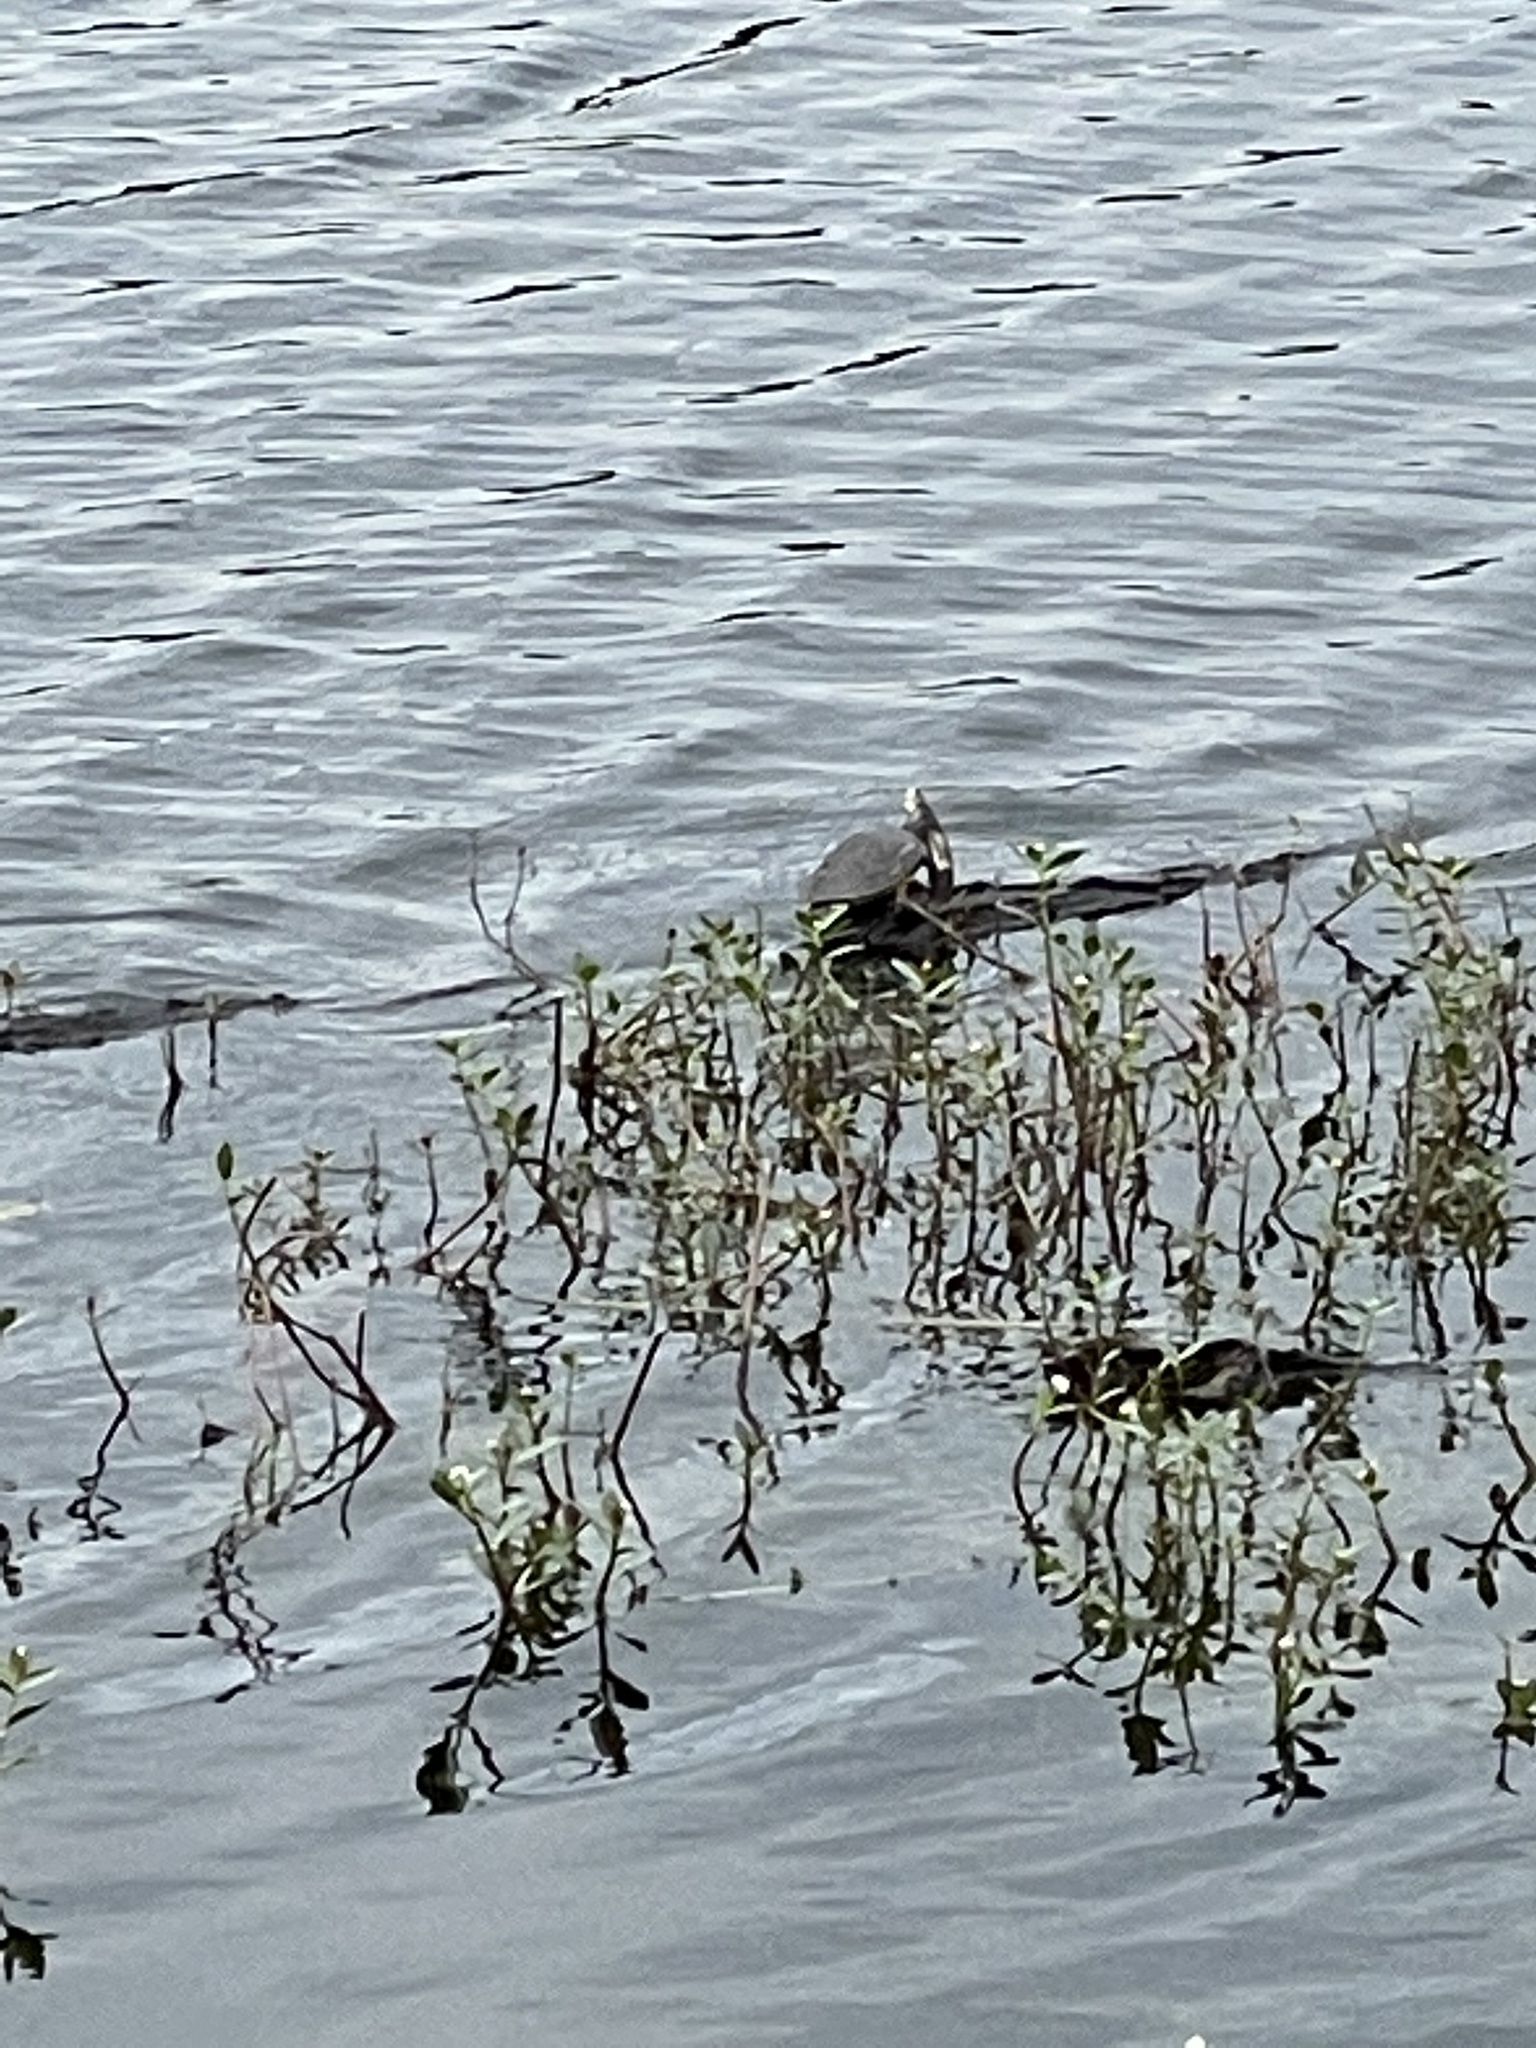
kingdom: Animalia
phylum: Chordata
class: Testudines
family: Emydidae
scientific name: Emydidae
